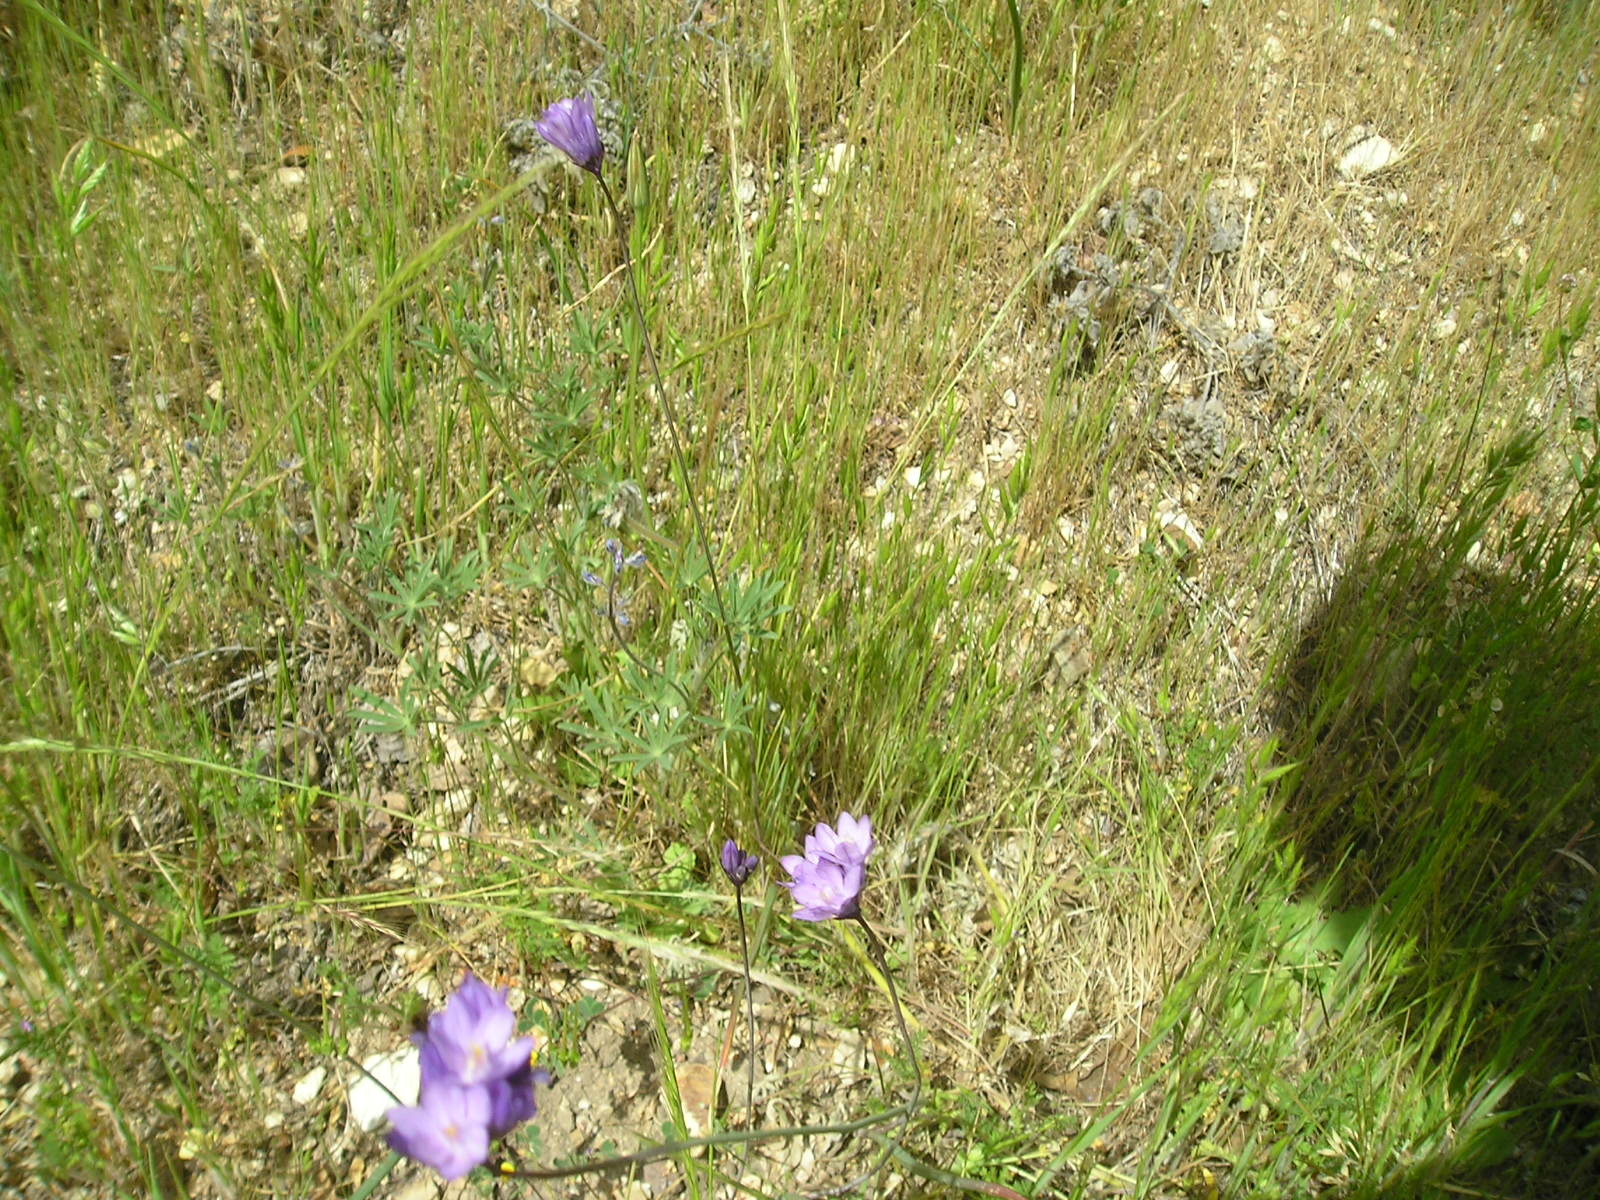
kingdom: Plantae
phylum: Tracheophyta
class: Liliopsida
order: Asparagales
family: Asparagaceae
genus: Dipterostemon
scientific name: Dipterostemon capitatus
